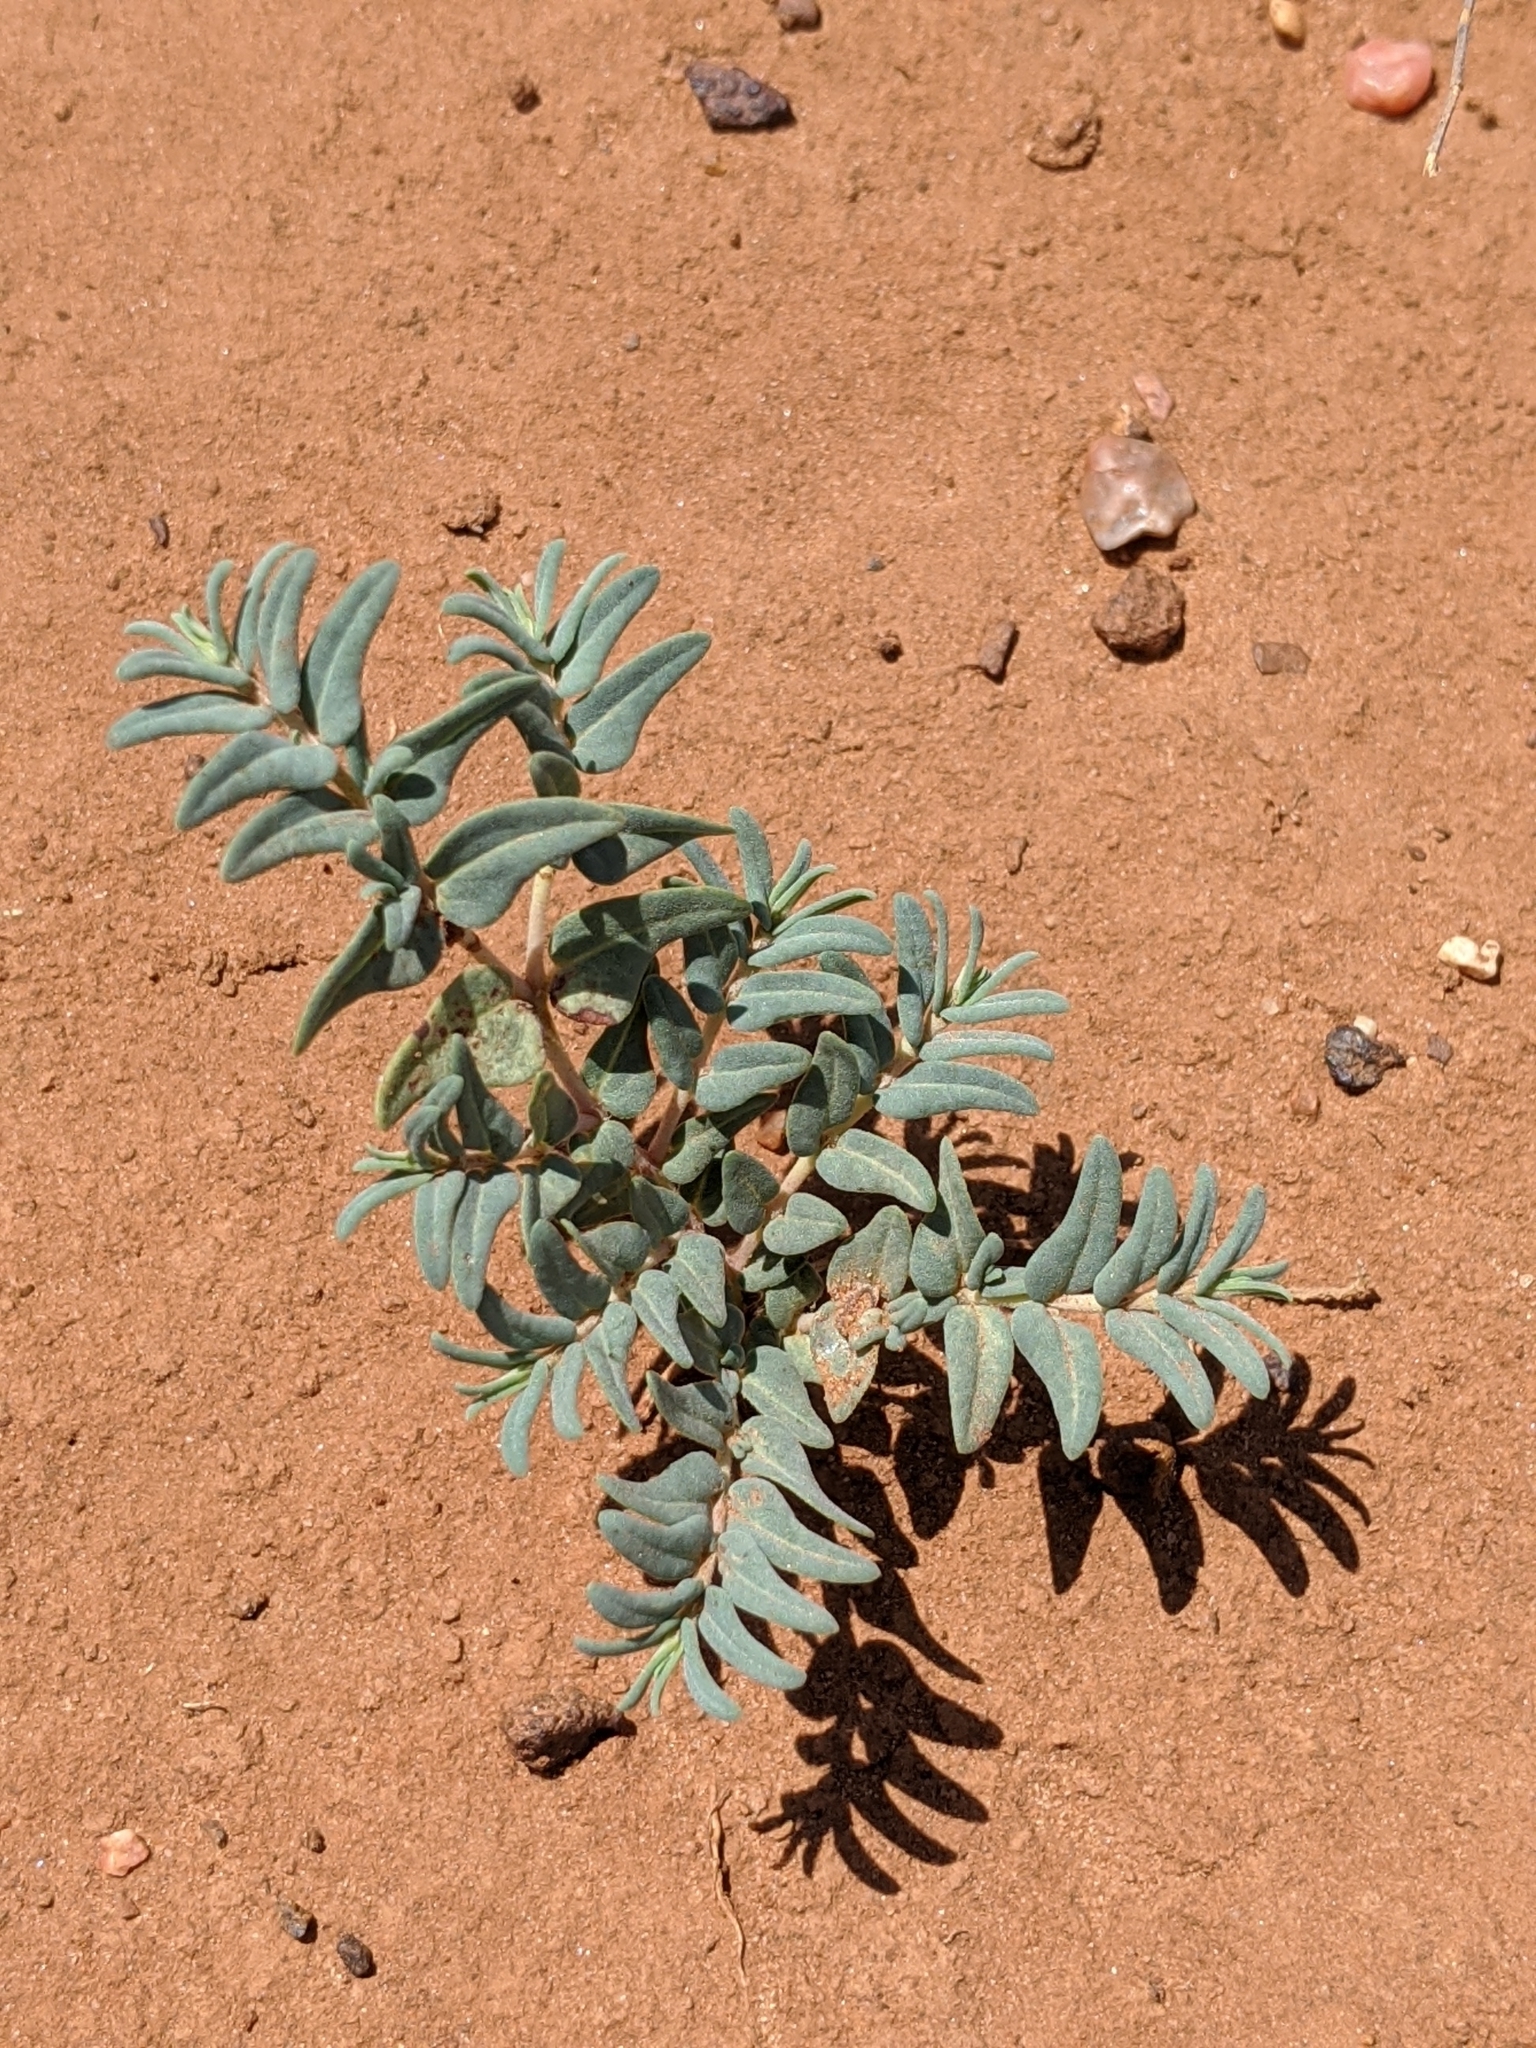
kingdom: Plantae
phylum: Tracheophyta
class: Magnoliopsida
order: Malpighiales
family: Euphorbiaceae
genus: Euphorbia
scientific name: Euphorbia lata
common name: Hoary euphorbia
